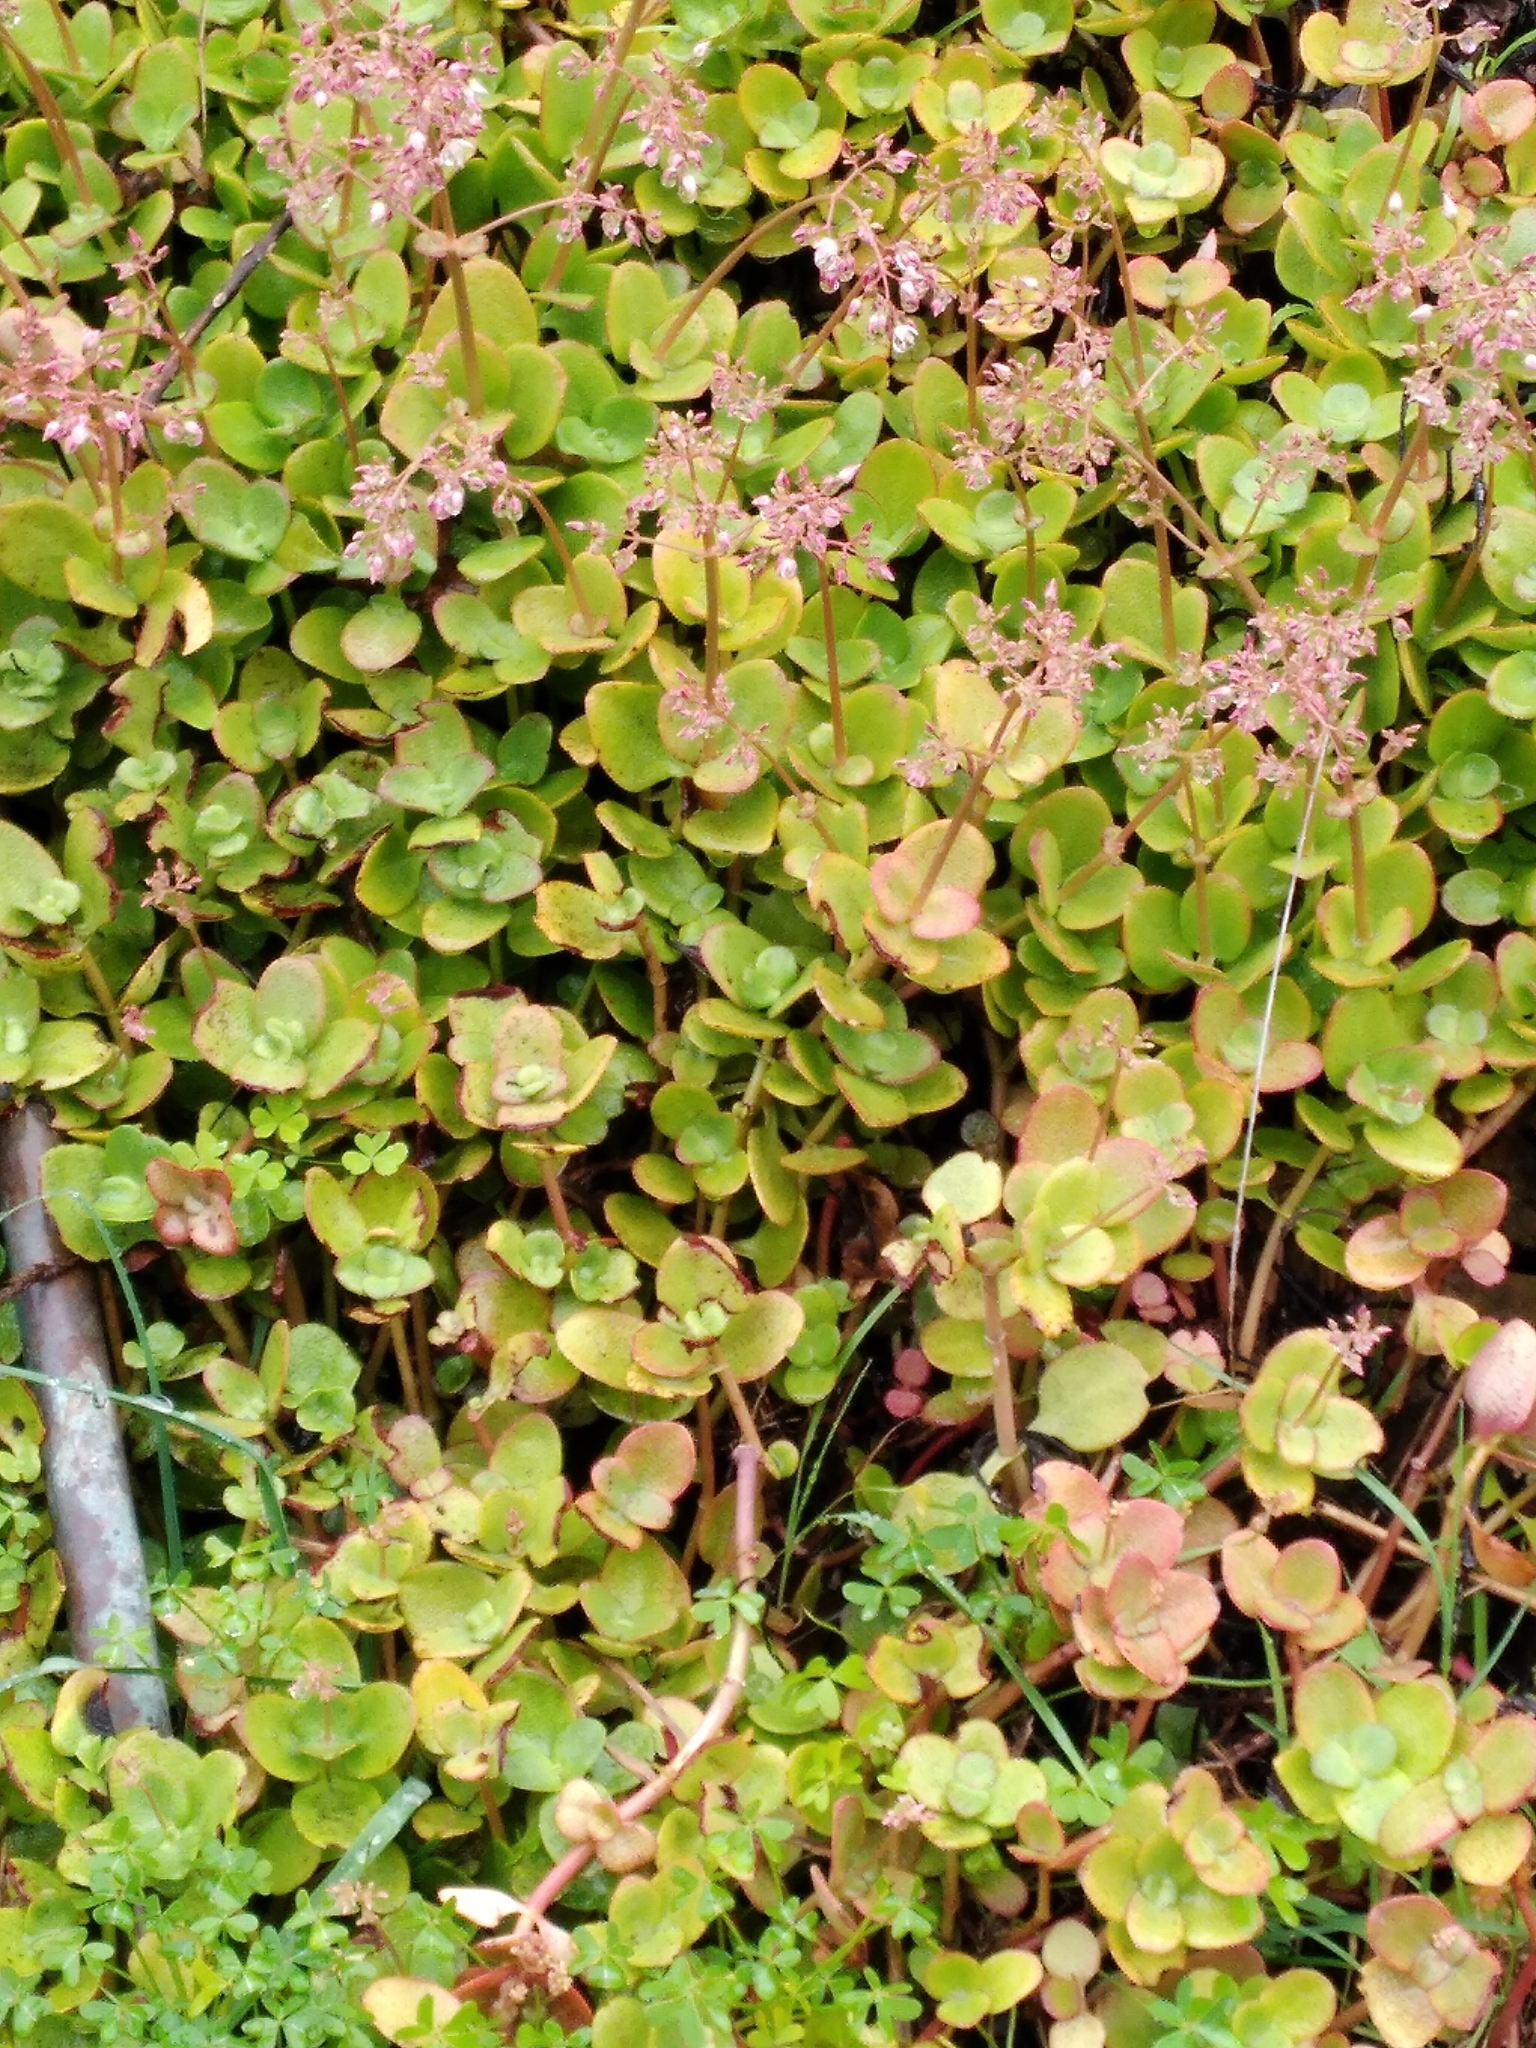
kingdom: Plantae
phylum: Tracheophyta
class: Magnoliopsida
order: Saxifragales
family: Crassulaceae
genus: Crassula
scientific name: Crassula multicava
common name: Cape province pygmyweed
